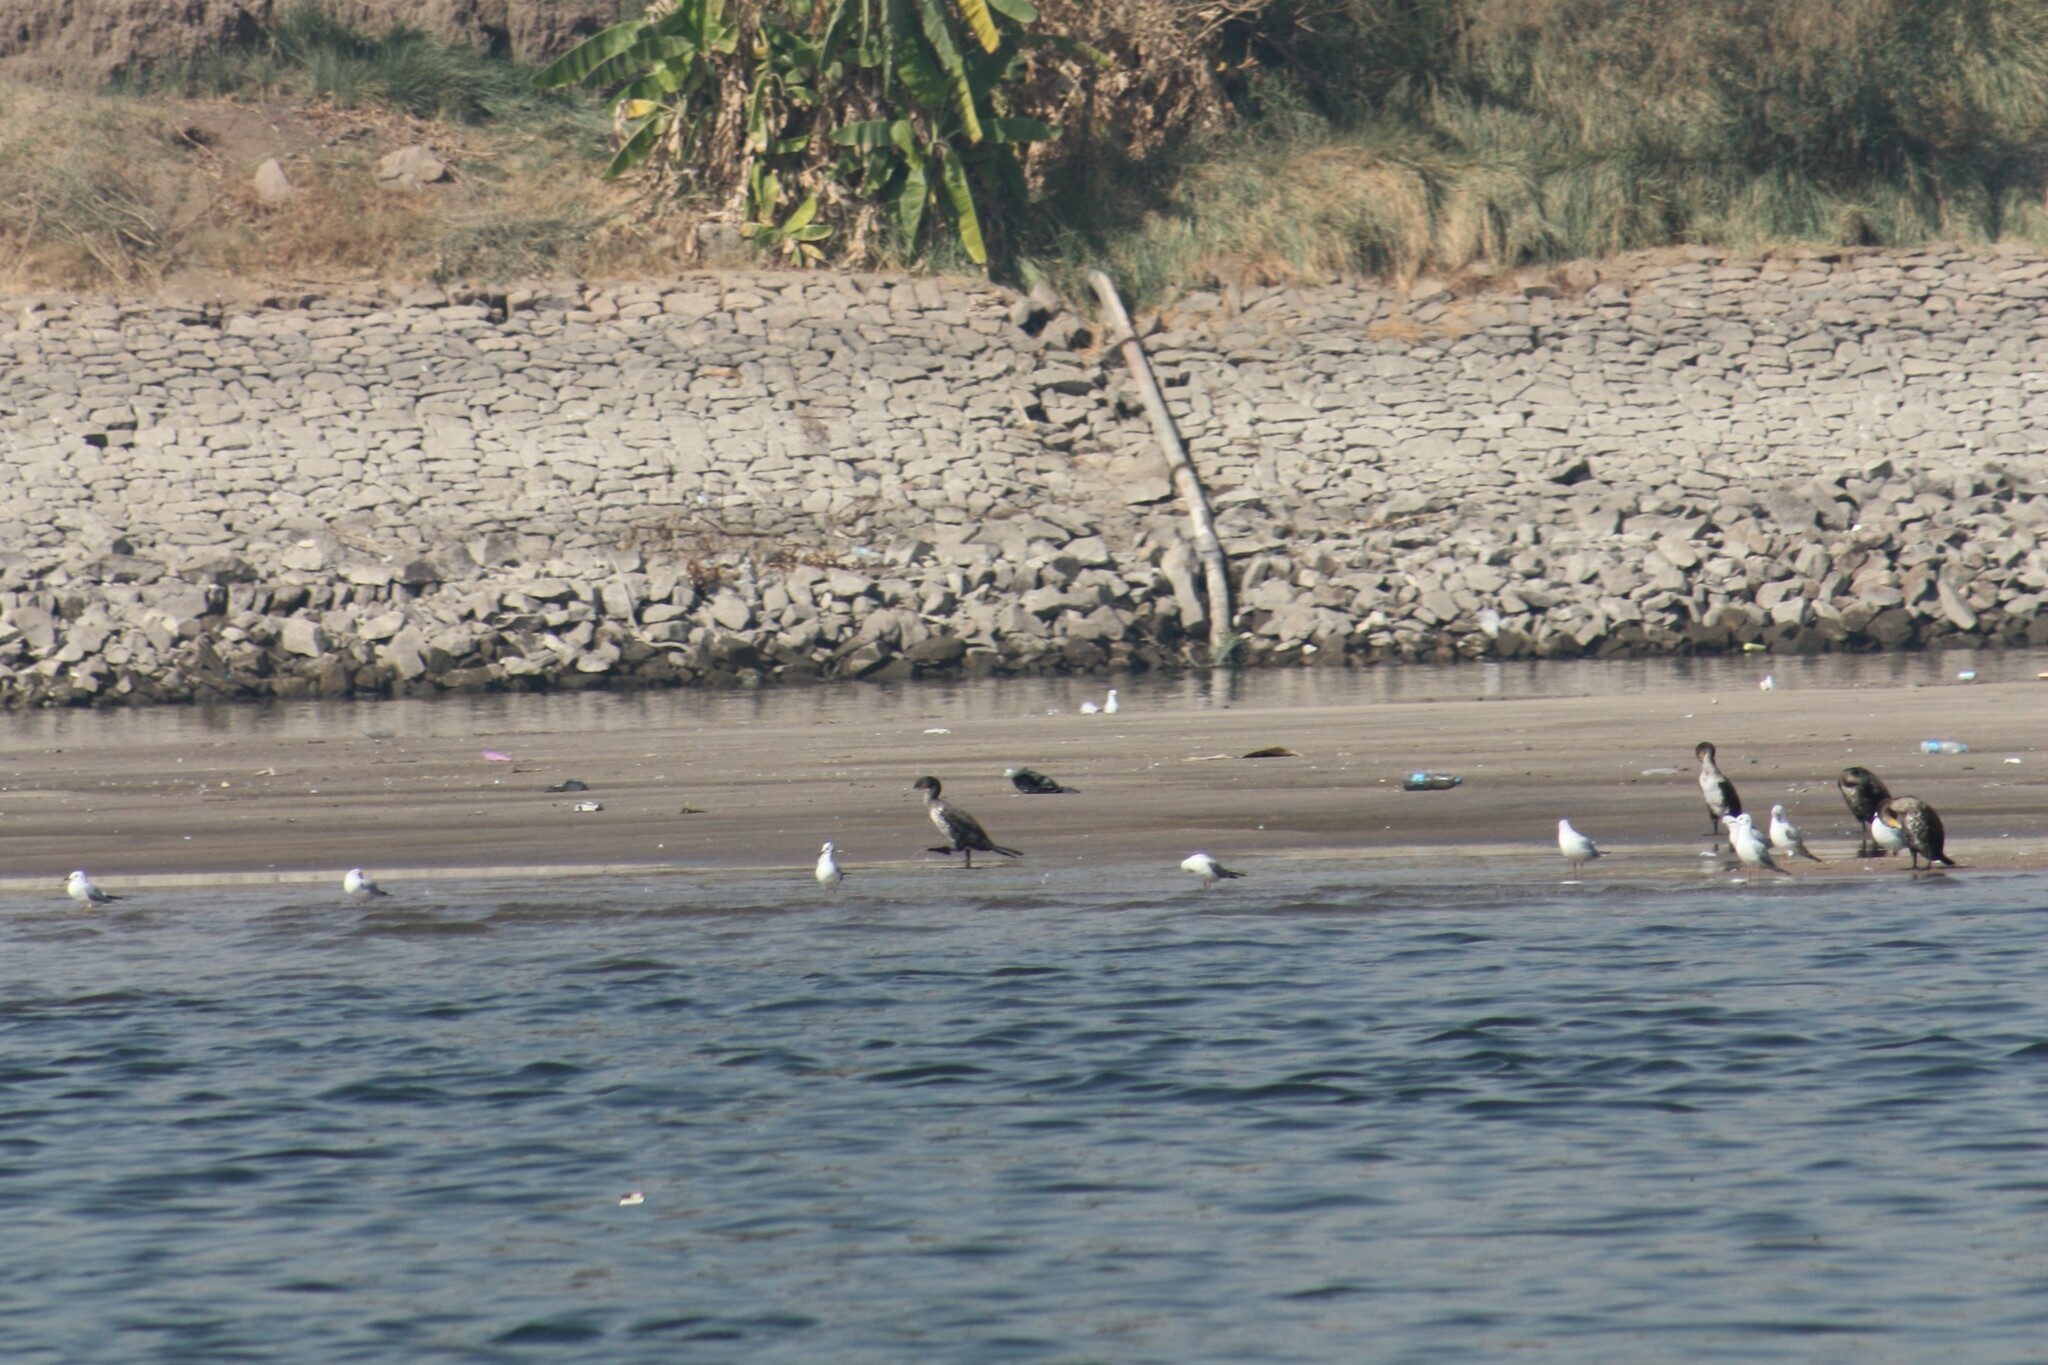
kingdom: Animalia
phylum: Chordata
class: Aves
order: Suliformes
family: Phalacrocoracidae
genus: Phalacrocorax
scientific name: Phalacrocorax carbo
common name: Great cormorant
